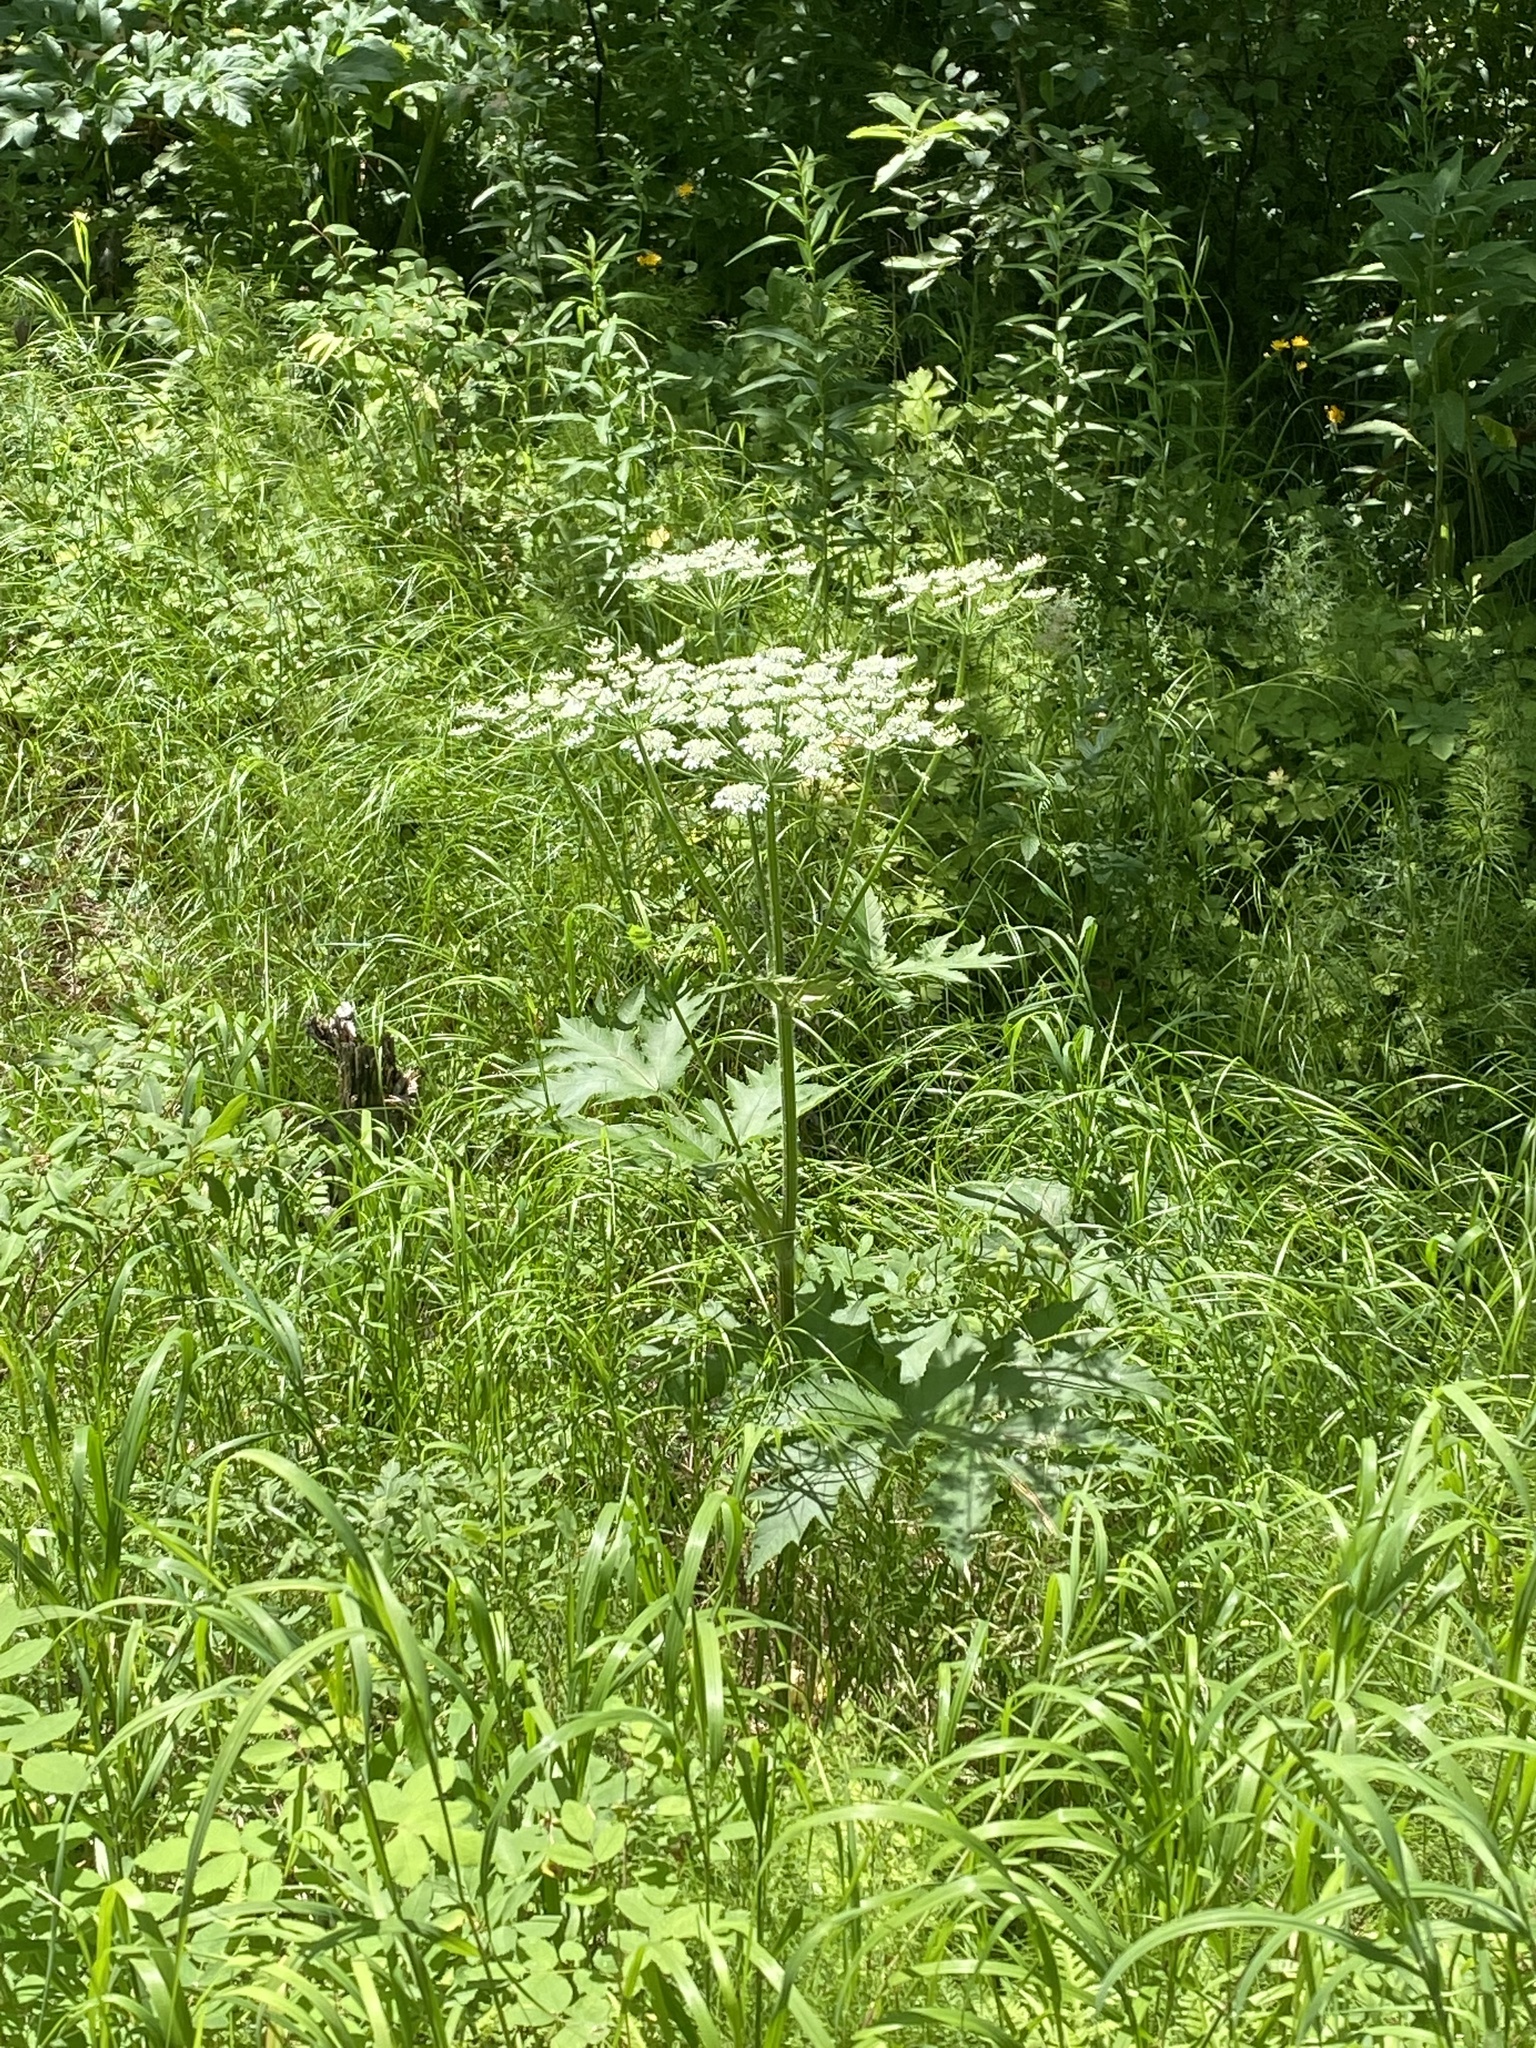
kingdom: Plantae
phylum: Tracheophyta
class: Magnoliopsida
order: Apiales
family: Apiaceae
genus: Heracleum
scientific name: Heracleum dissectum
